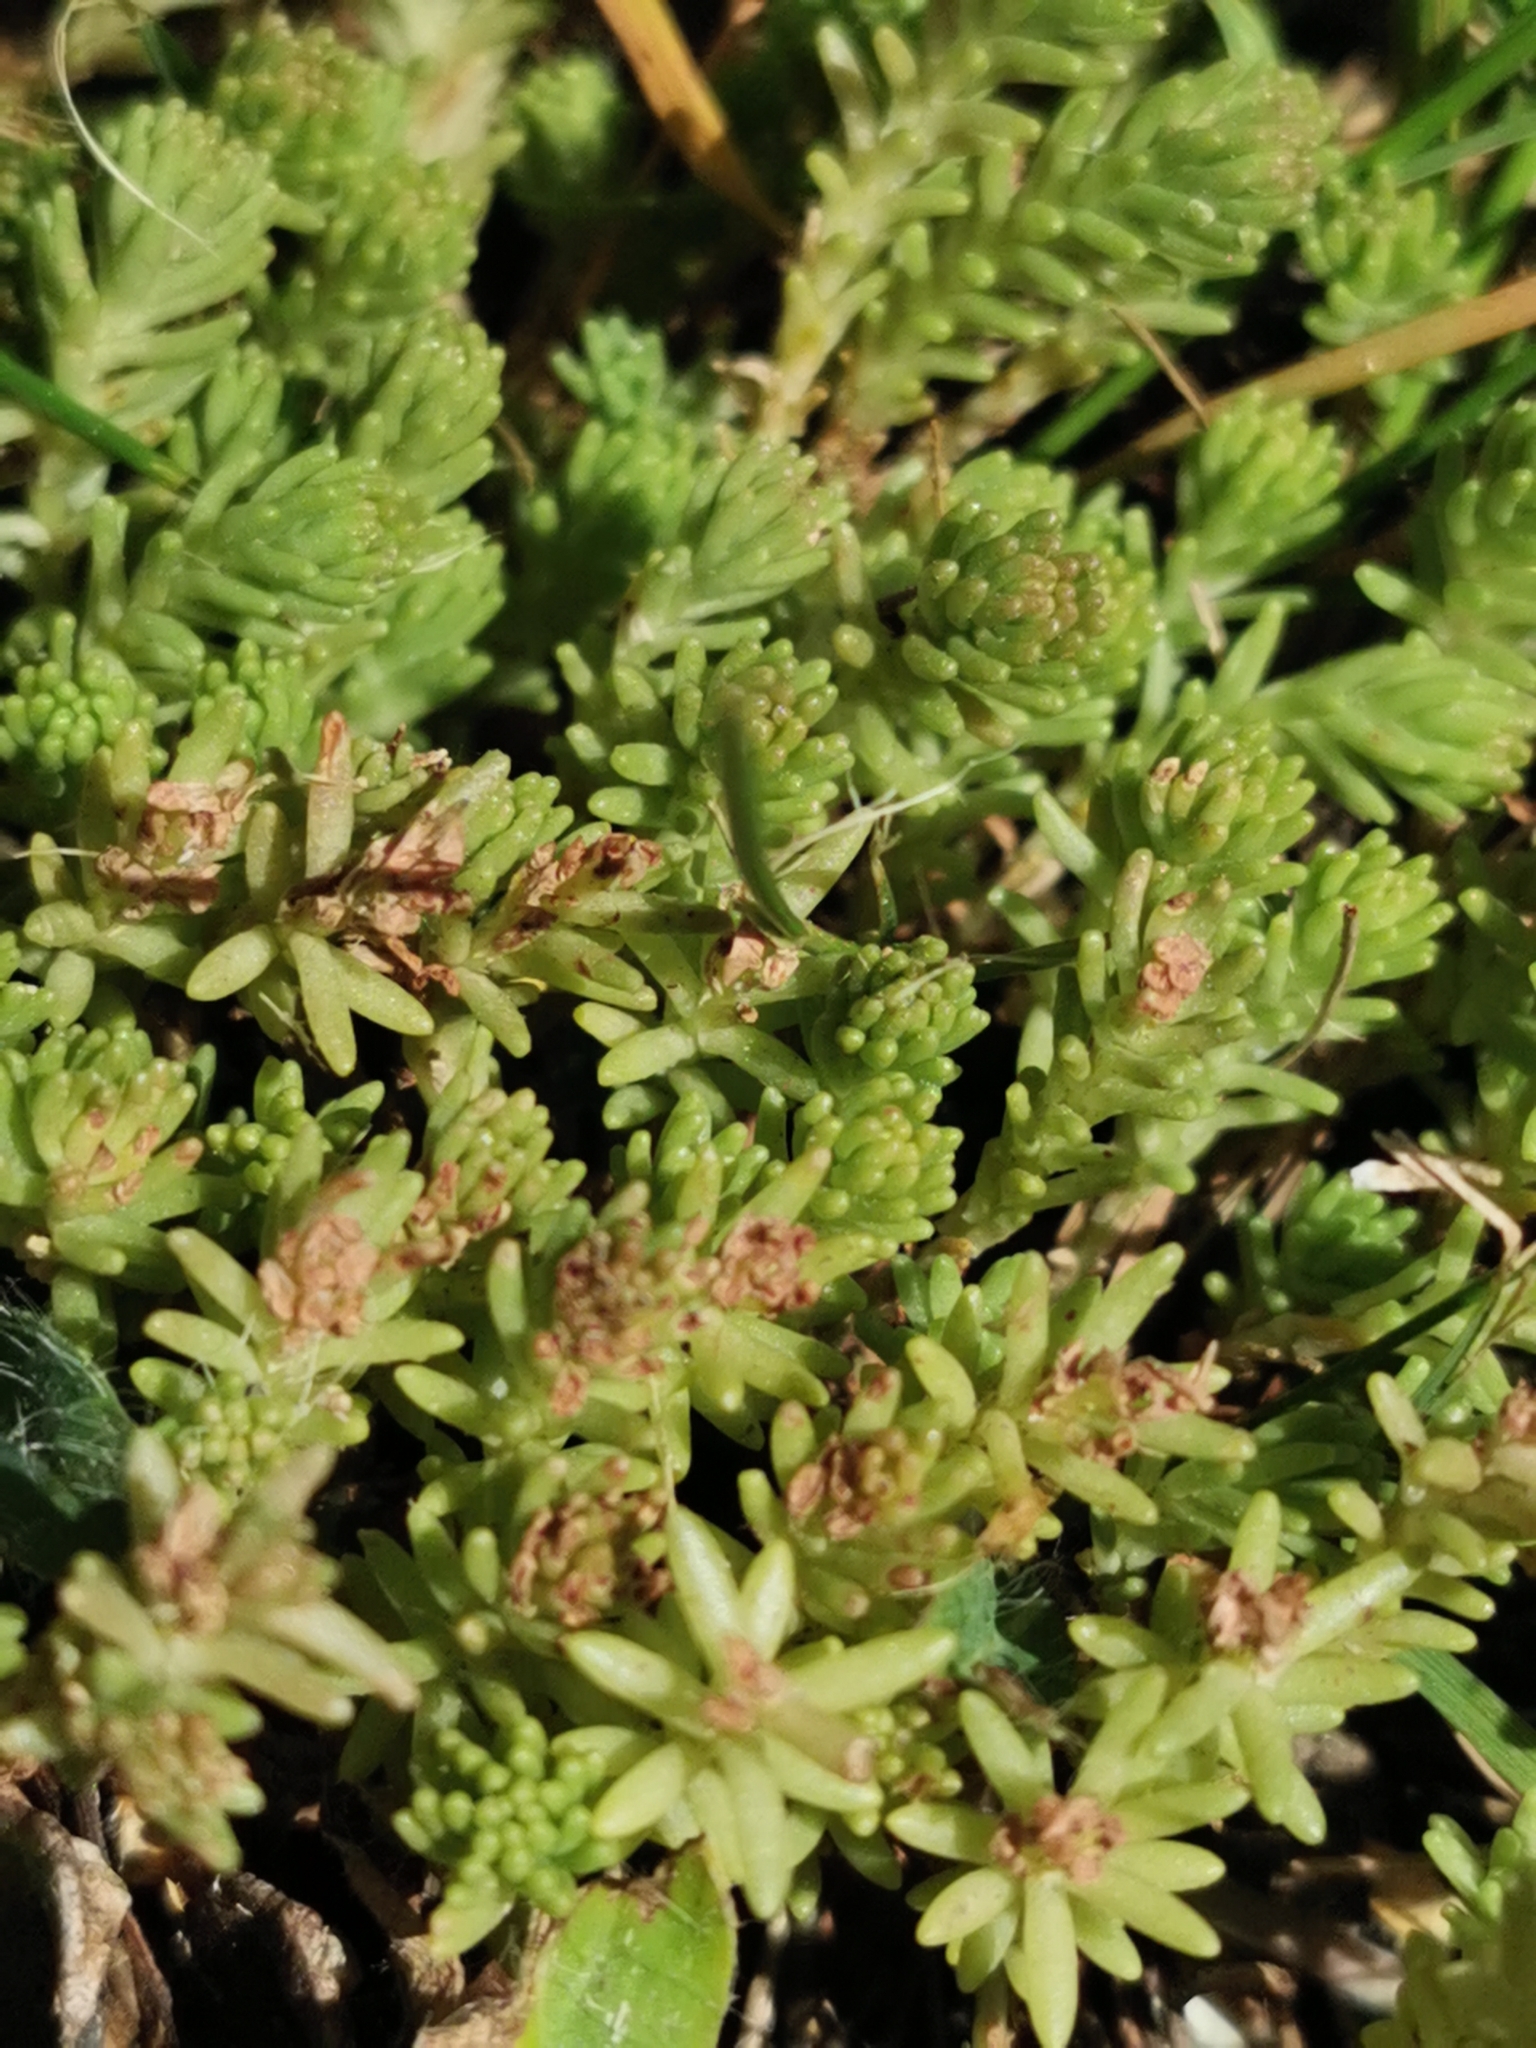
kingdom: Plantae
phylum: Tracheophyta
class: Magnoliopsida
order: Saxifragales
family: Crassulaceae
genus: Sedum
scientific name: Sedum sexangulare
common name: Tasteless stonecrop
